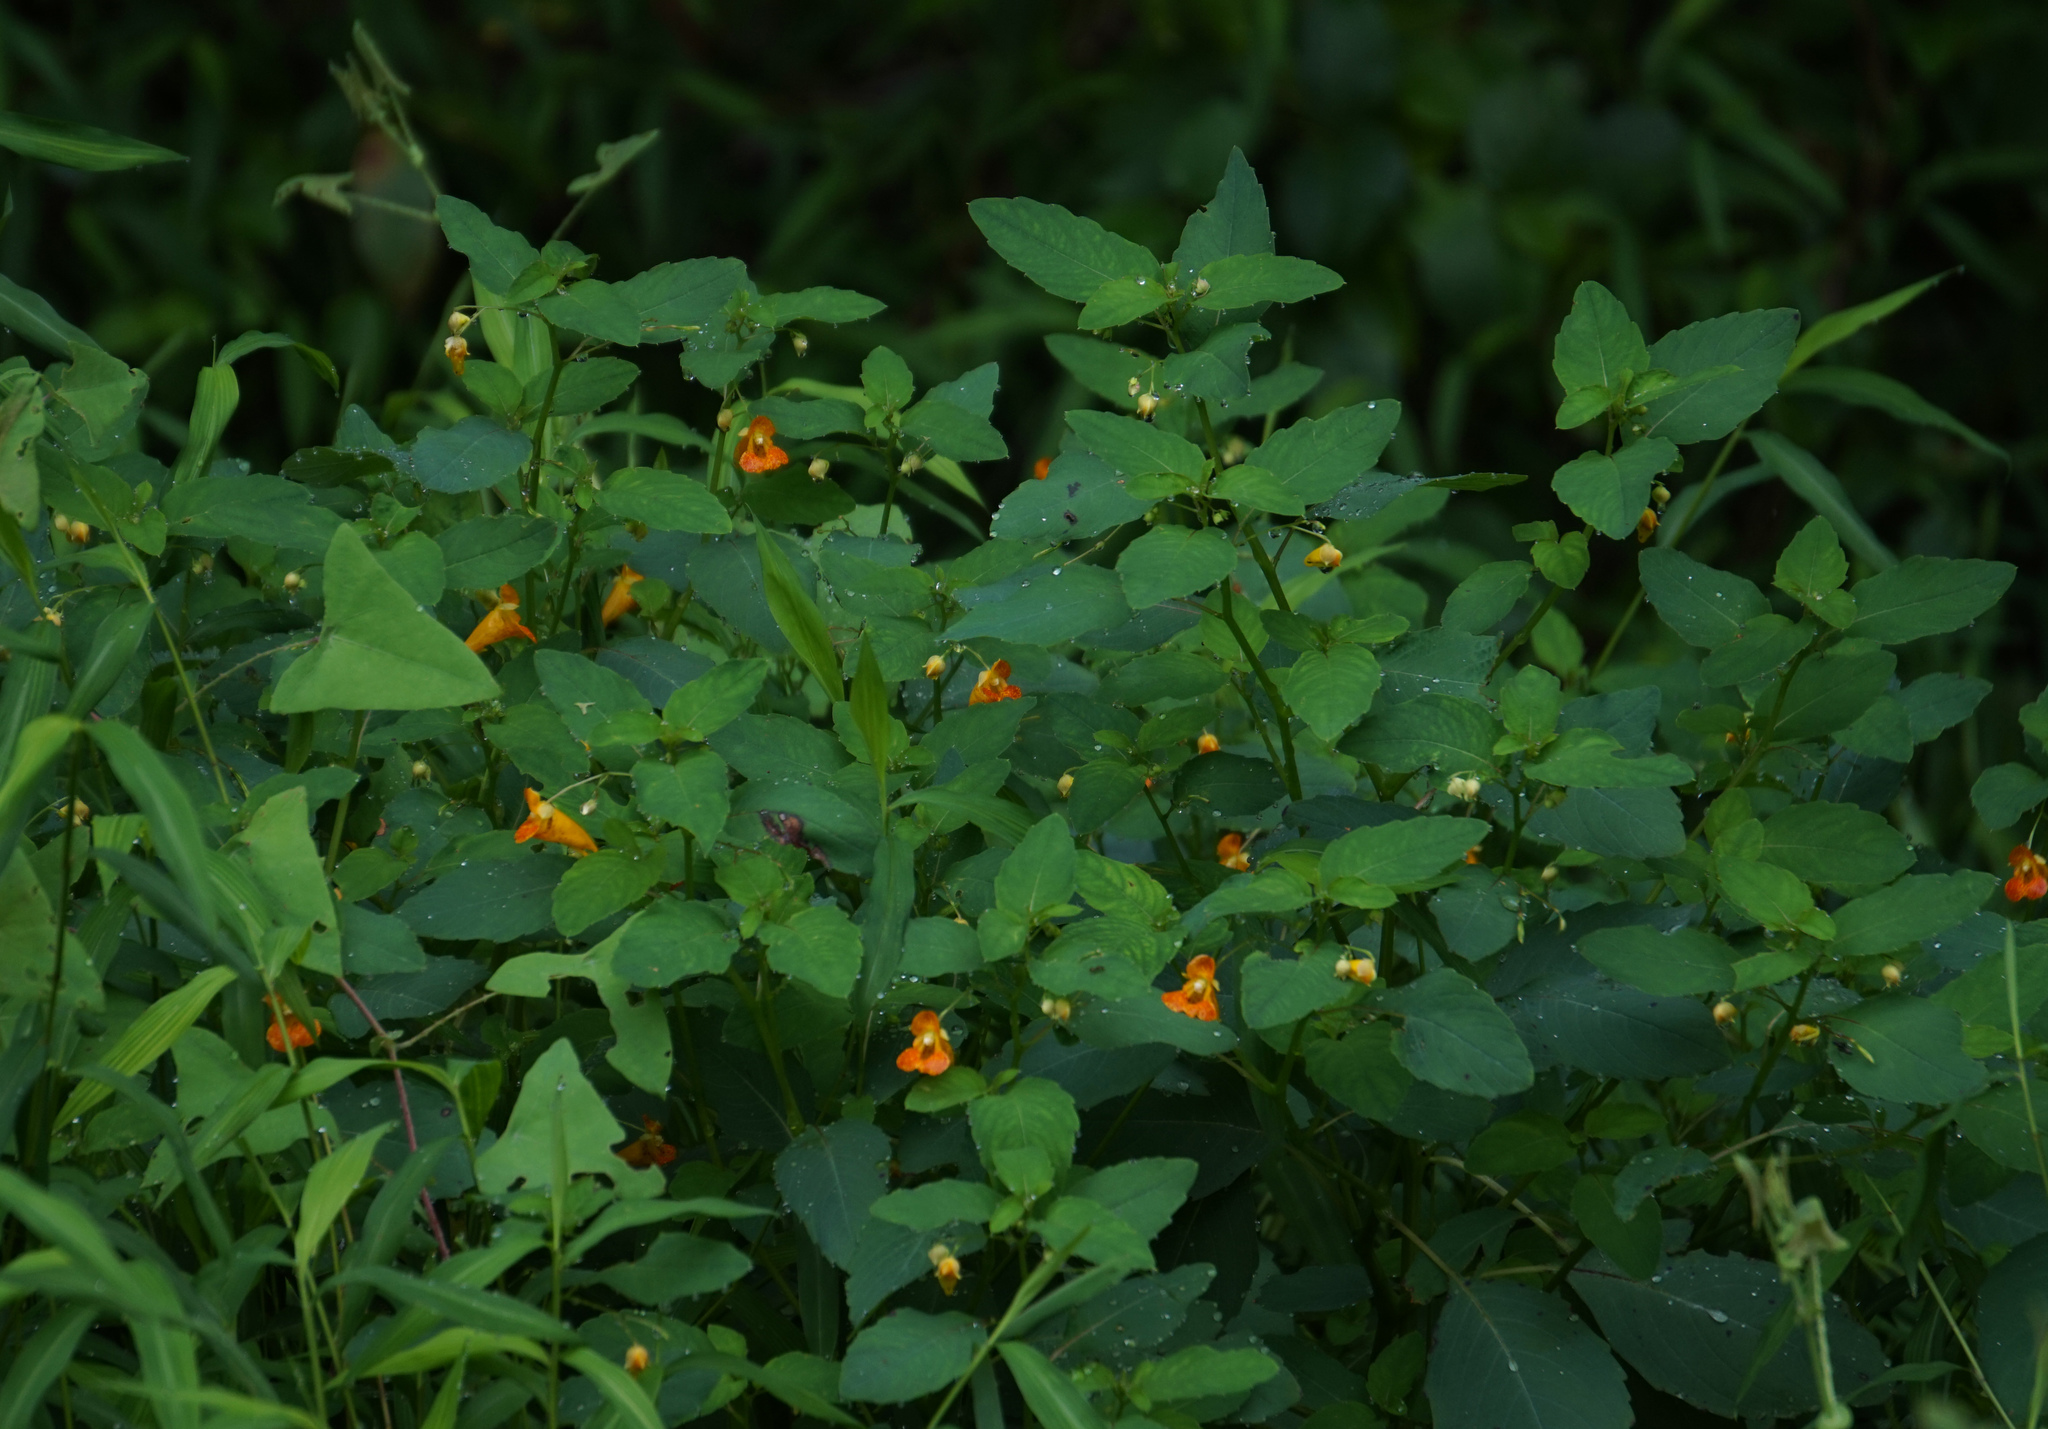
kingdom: Plantae
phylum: Tracheophyta
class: Magnoliopsida
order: Ericales
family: Balsaminaceae
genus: Impatiens
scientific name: Impatiens capensis
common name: Orange balsam
